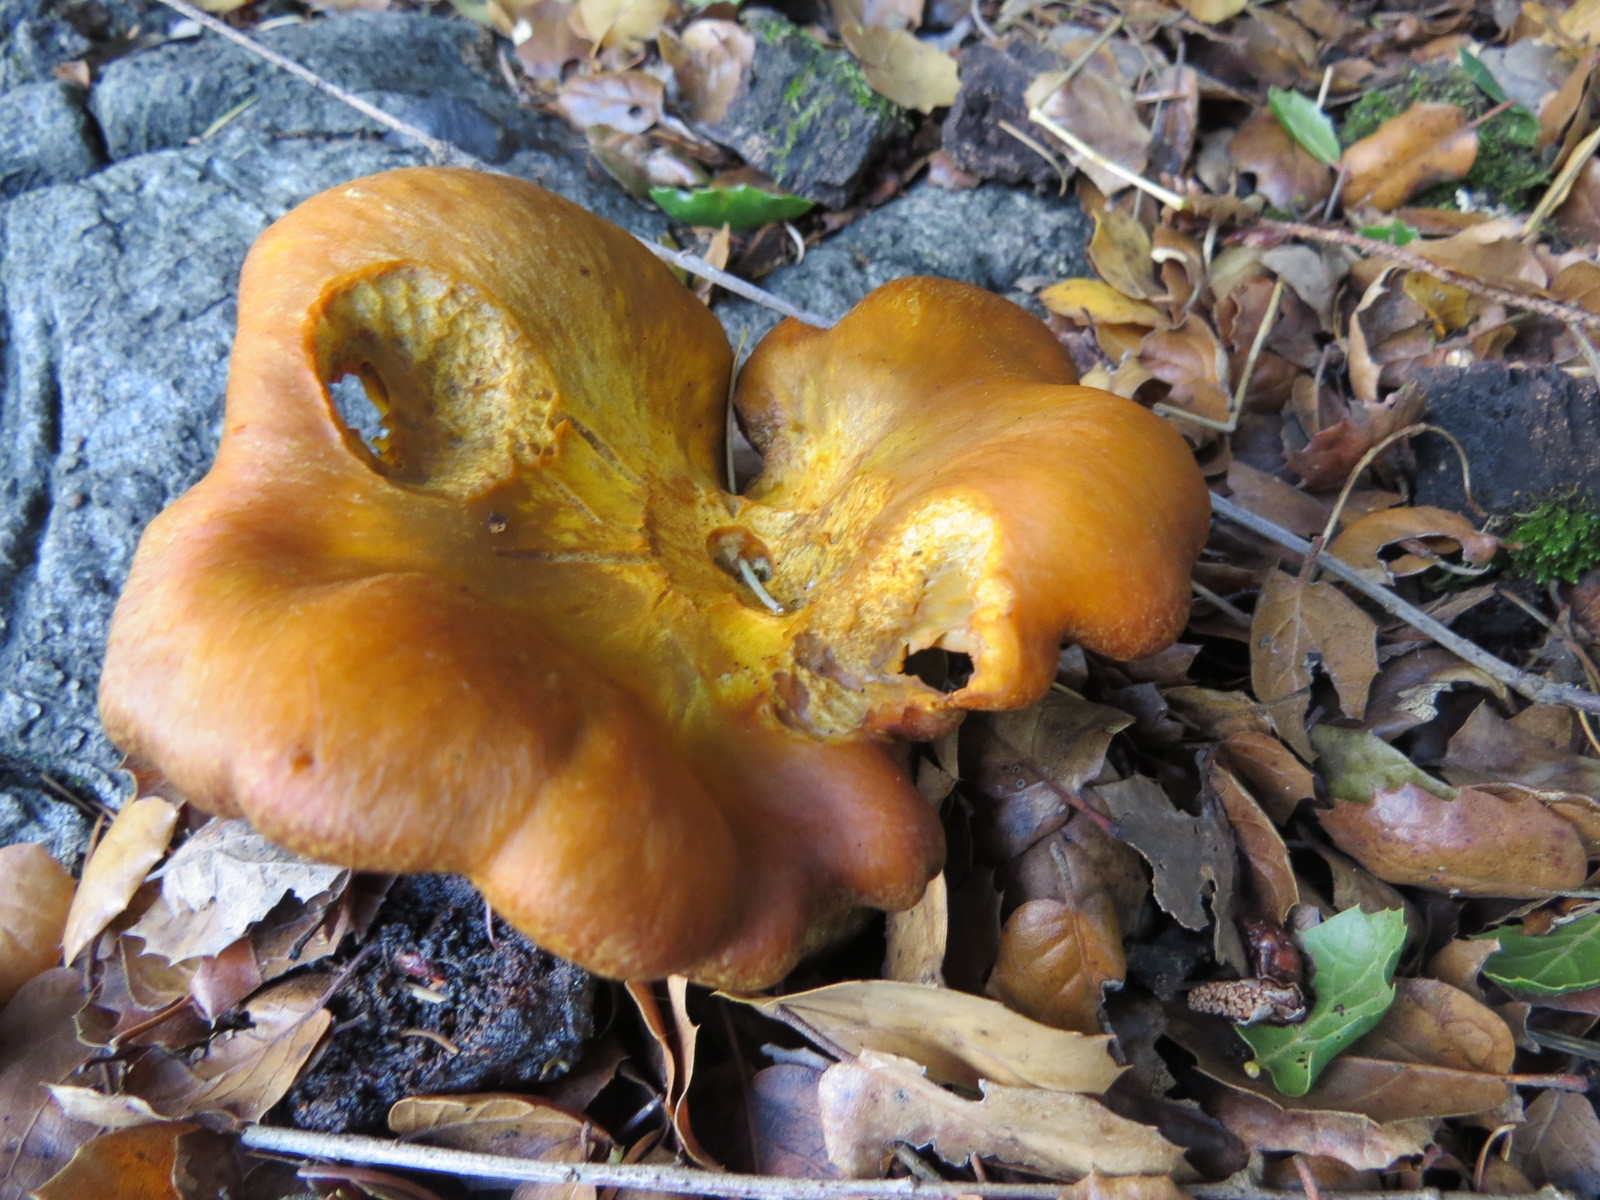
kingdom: Fungi
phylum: Basidiomycota
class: Agaricomycetes
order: Agaricales
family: Omphalotaceae
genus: Omphalotus
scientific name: Omphalotus olivascens
